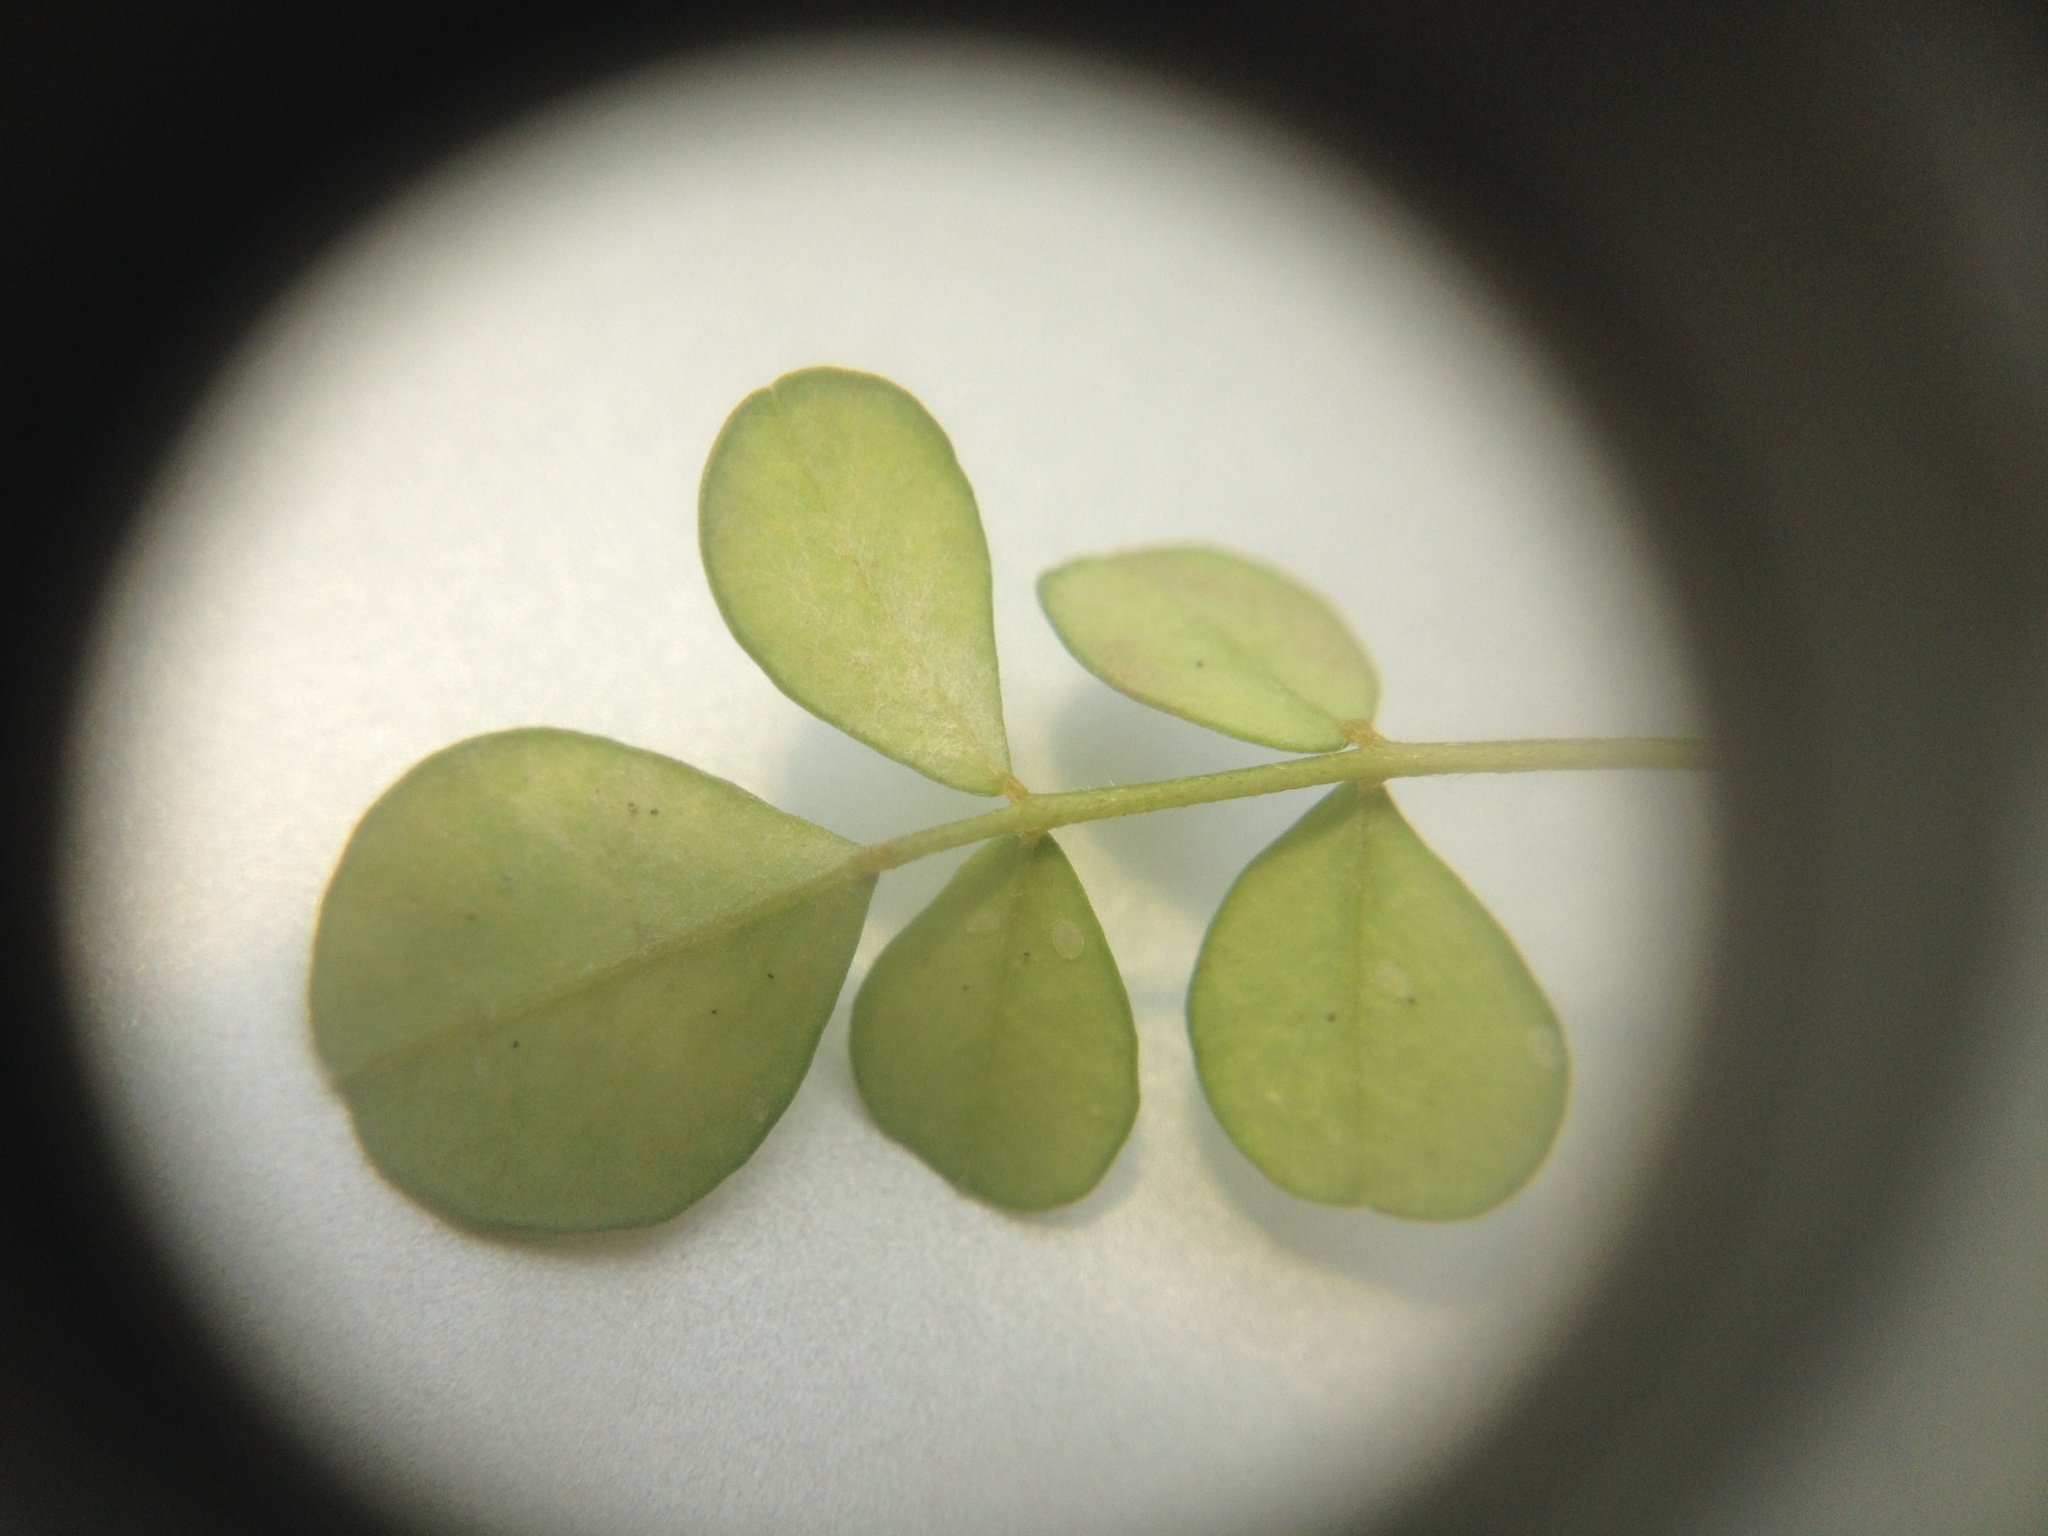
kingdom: Plantae
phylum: Tracheophyta
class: Magnoliopsida
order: Fabales
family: Fabaceae
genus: Sophora
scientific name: Sophora microphylla
